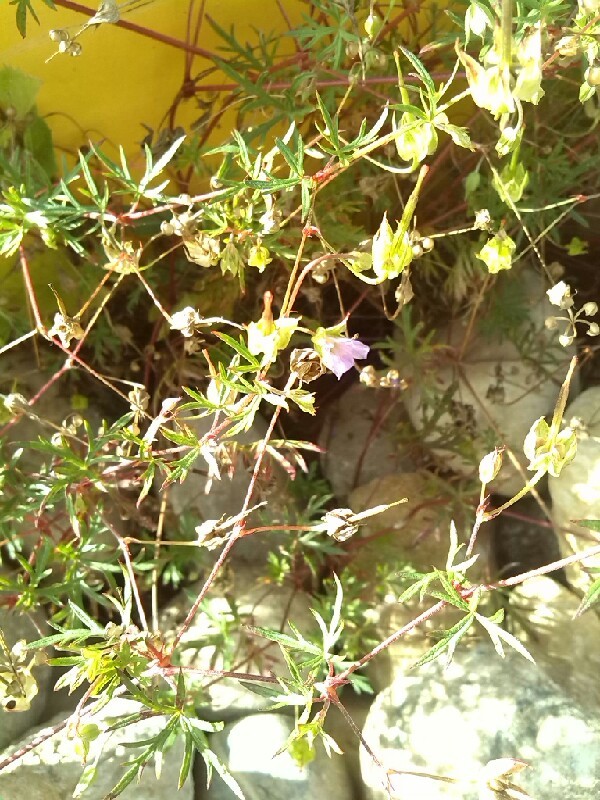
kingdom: Plantae
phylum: Tracheophyta
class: Magnoliopsida
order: Geraniales
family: Geraniaceae
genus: Geranium
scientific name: Geranium columbinum
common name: Long-stalked crane's-bill
